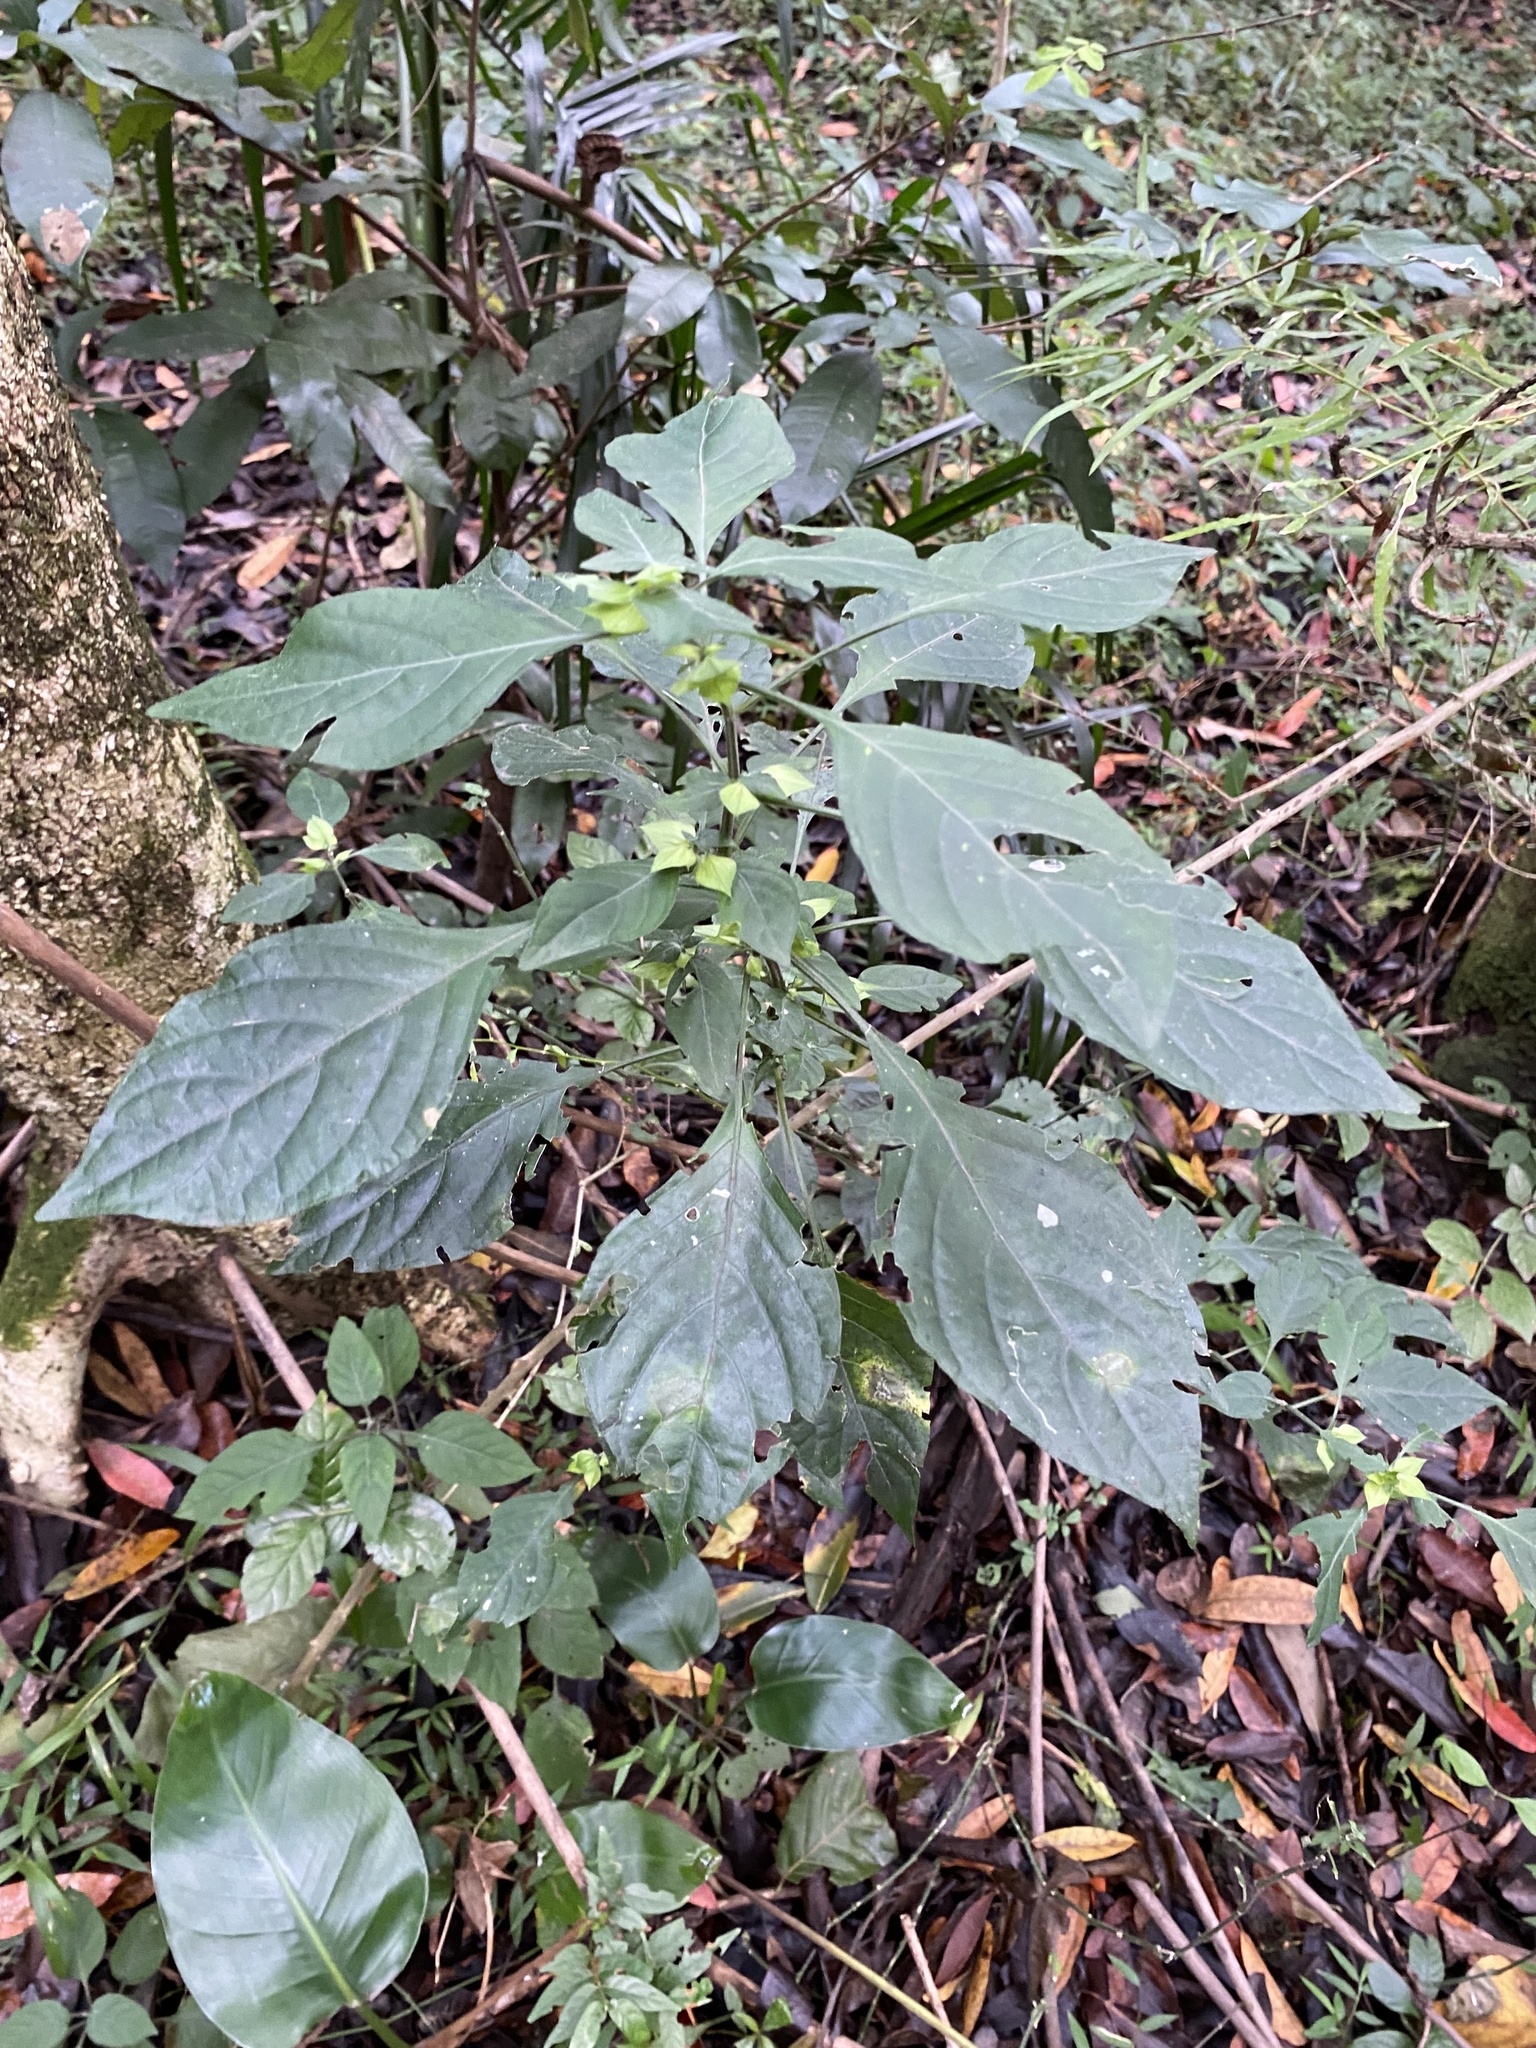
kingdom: Plantae
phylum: Tracheophyta
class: Magnoliopsida
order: Lamiales
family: Acanthaceae
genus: Dicliptera
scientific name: Dicliptera heterostegia
